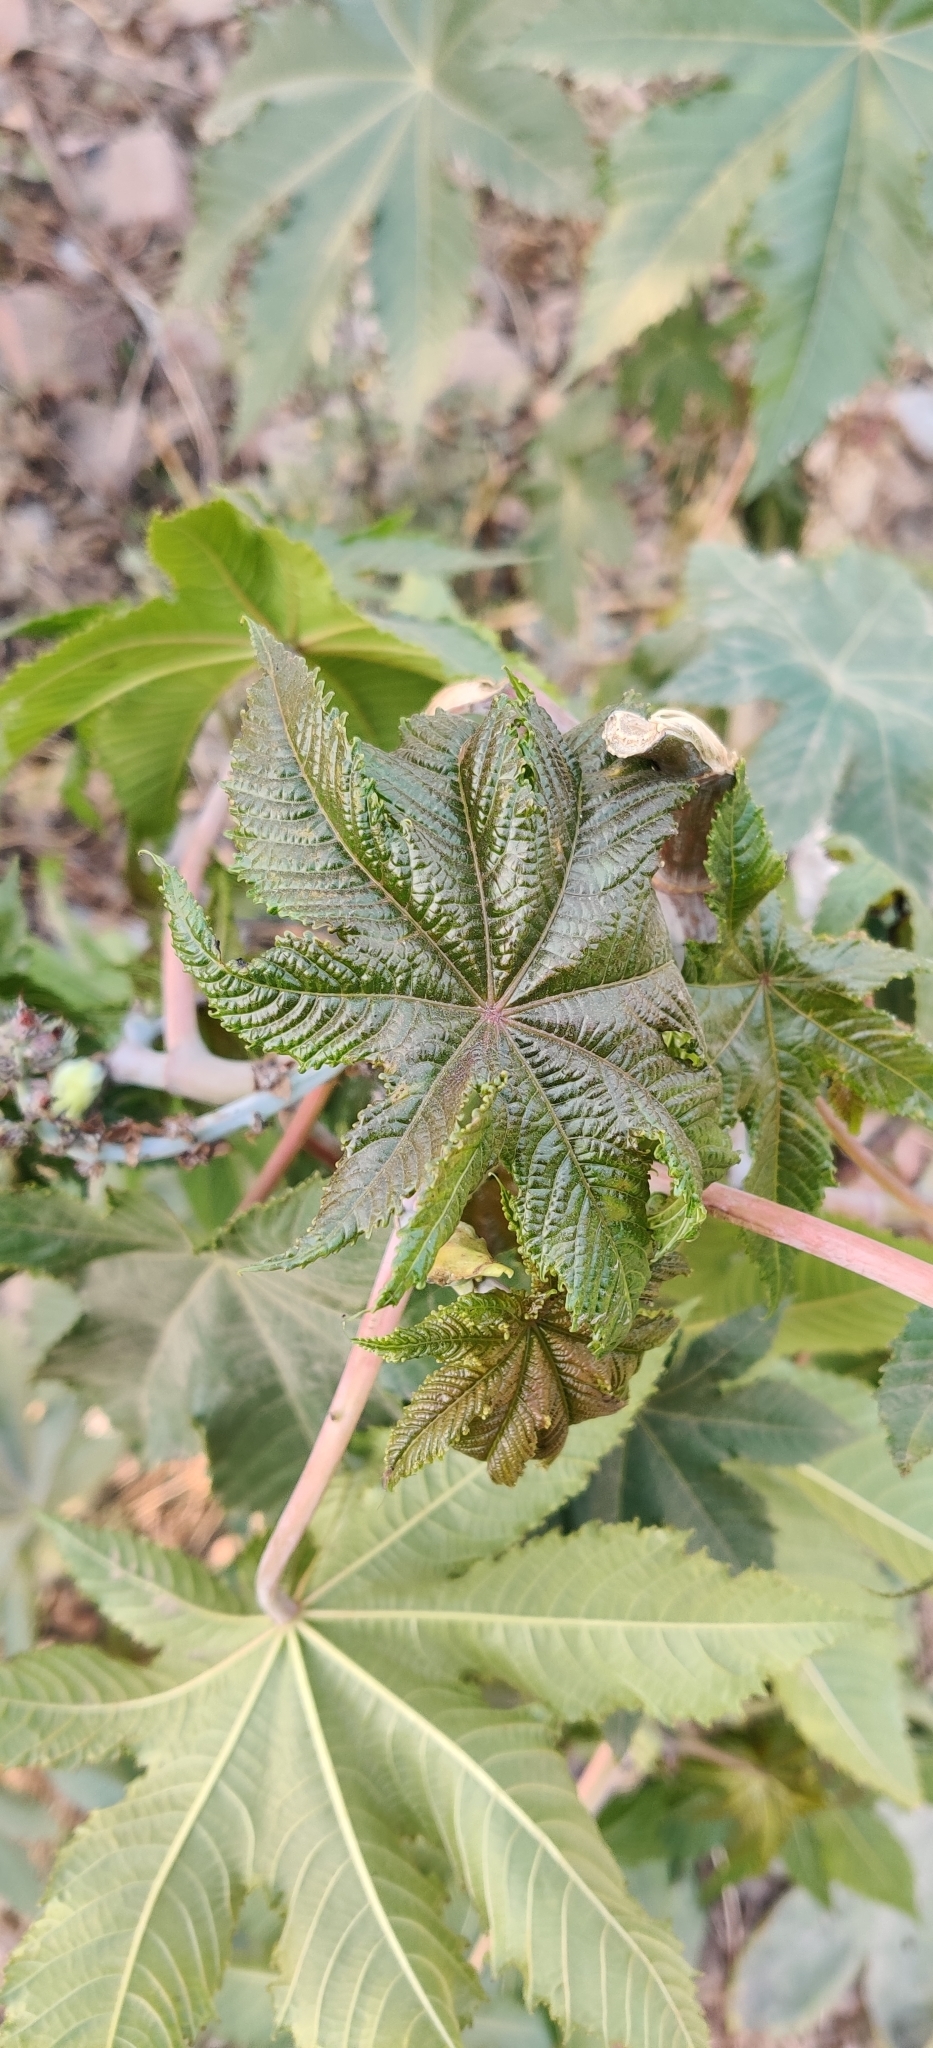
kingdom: Plantae
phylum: Tracheophyta
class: Magnoliopsida
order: Malpighiales
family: Euphorbiaceae
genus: Ricinus
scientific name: Ricinus communis
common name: Castor-oil-plant
